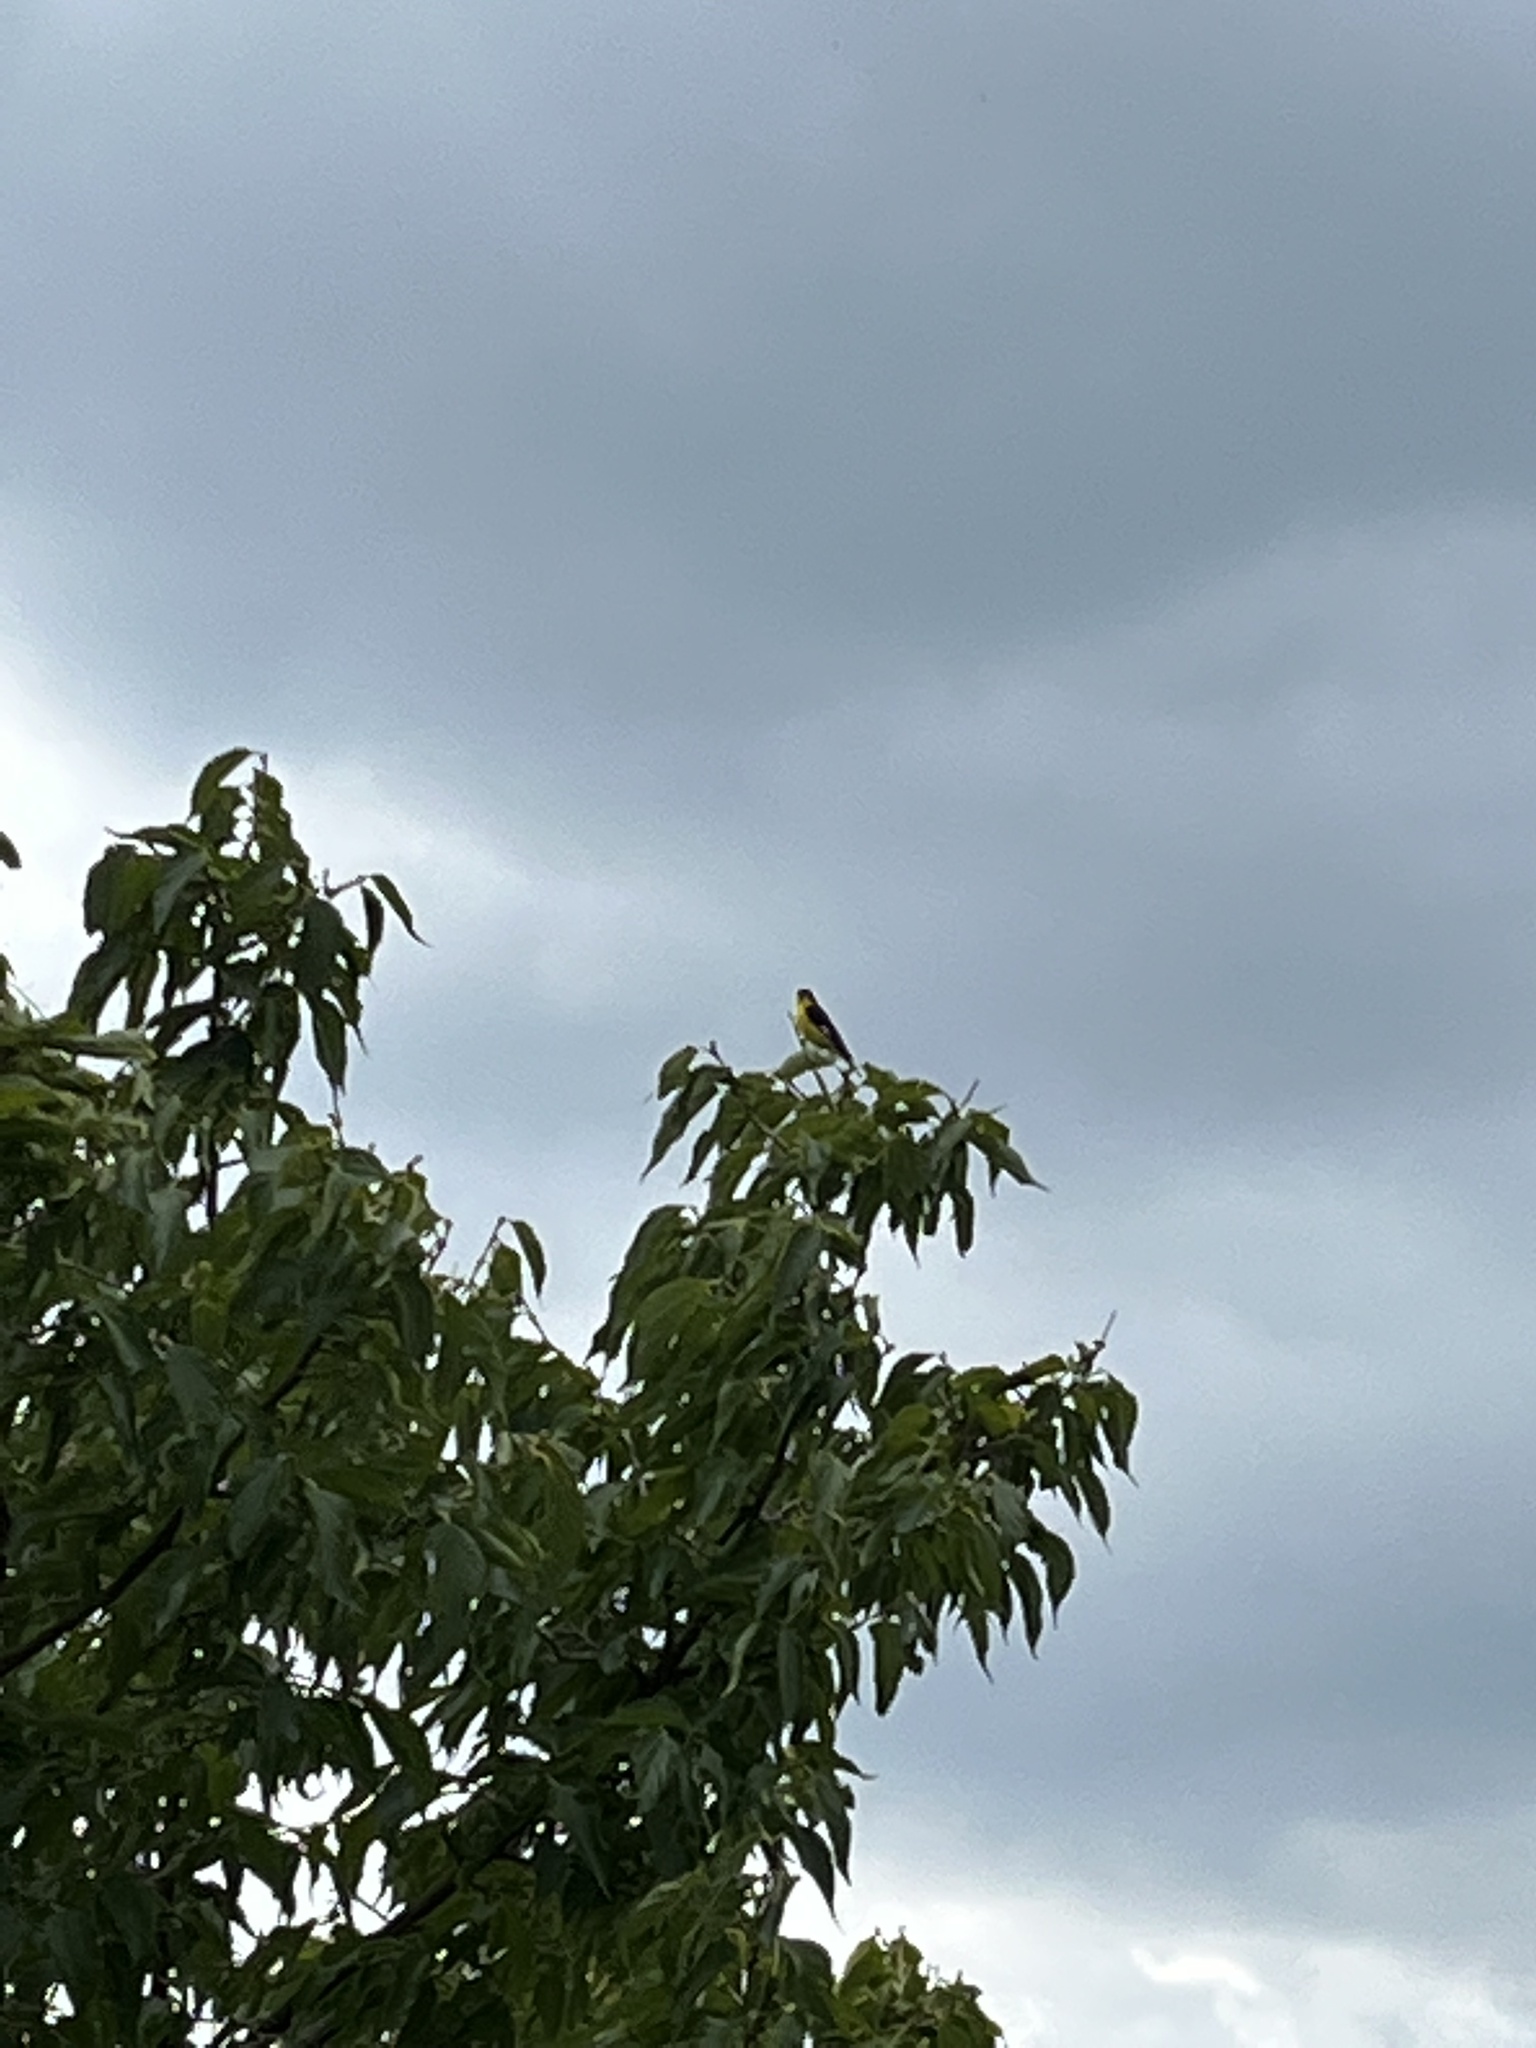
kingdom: Animalia
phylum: Chordata
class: Aves
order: Passeriformes
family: Fringillidae
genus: Spinus
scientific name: Spinus psaltria
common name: Lesser goldfinch
